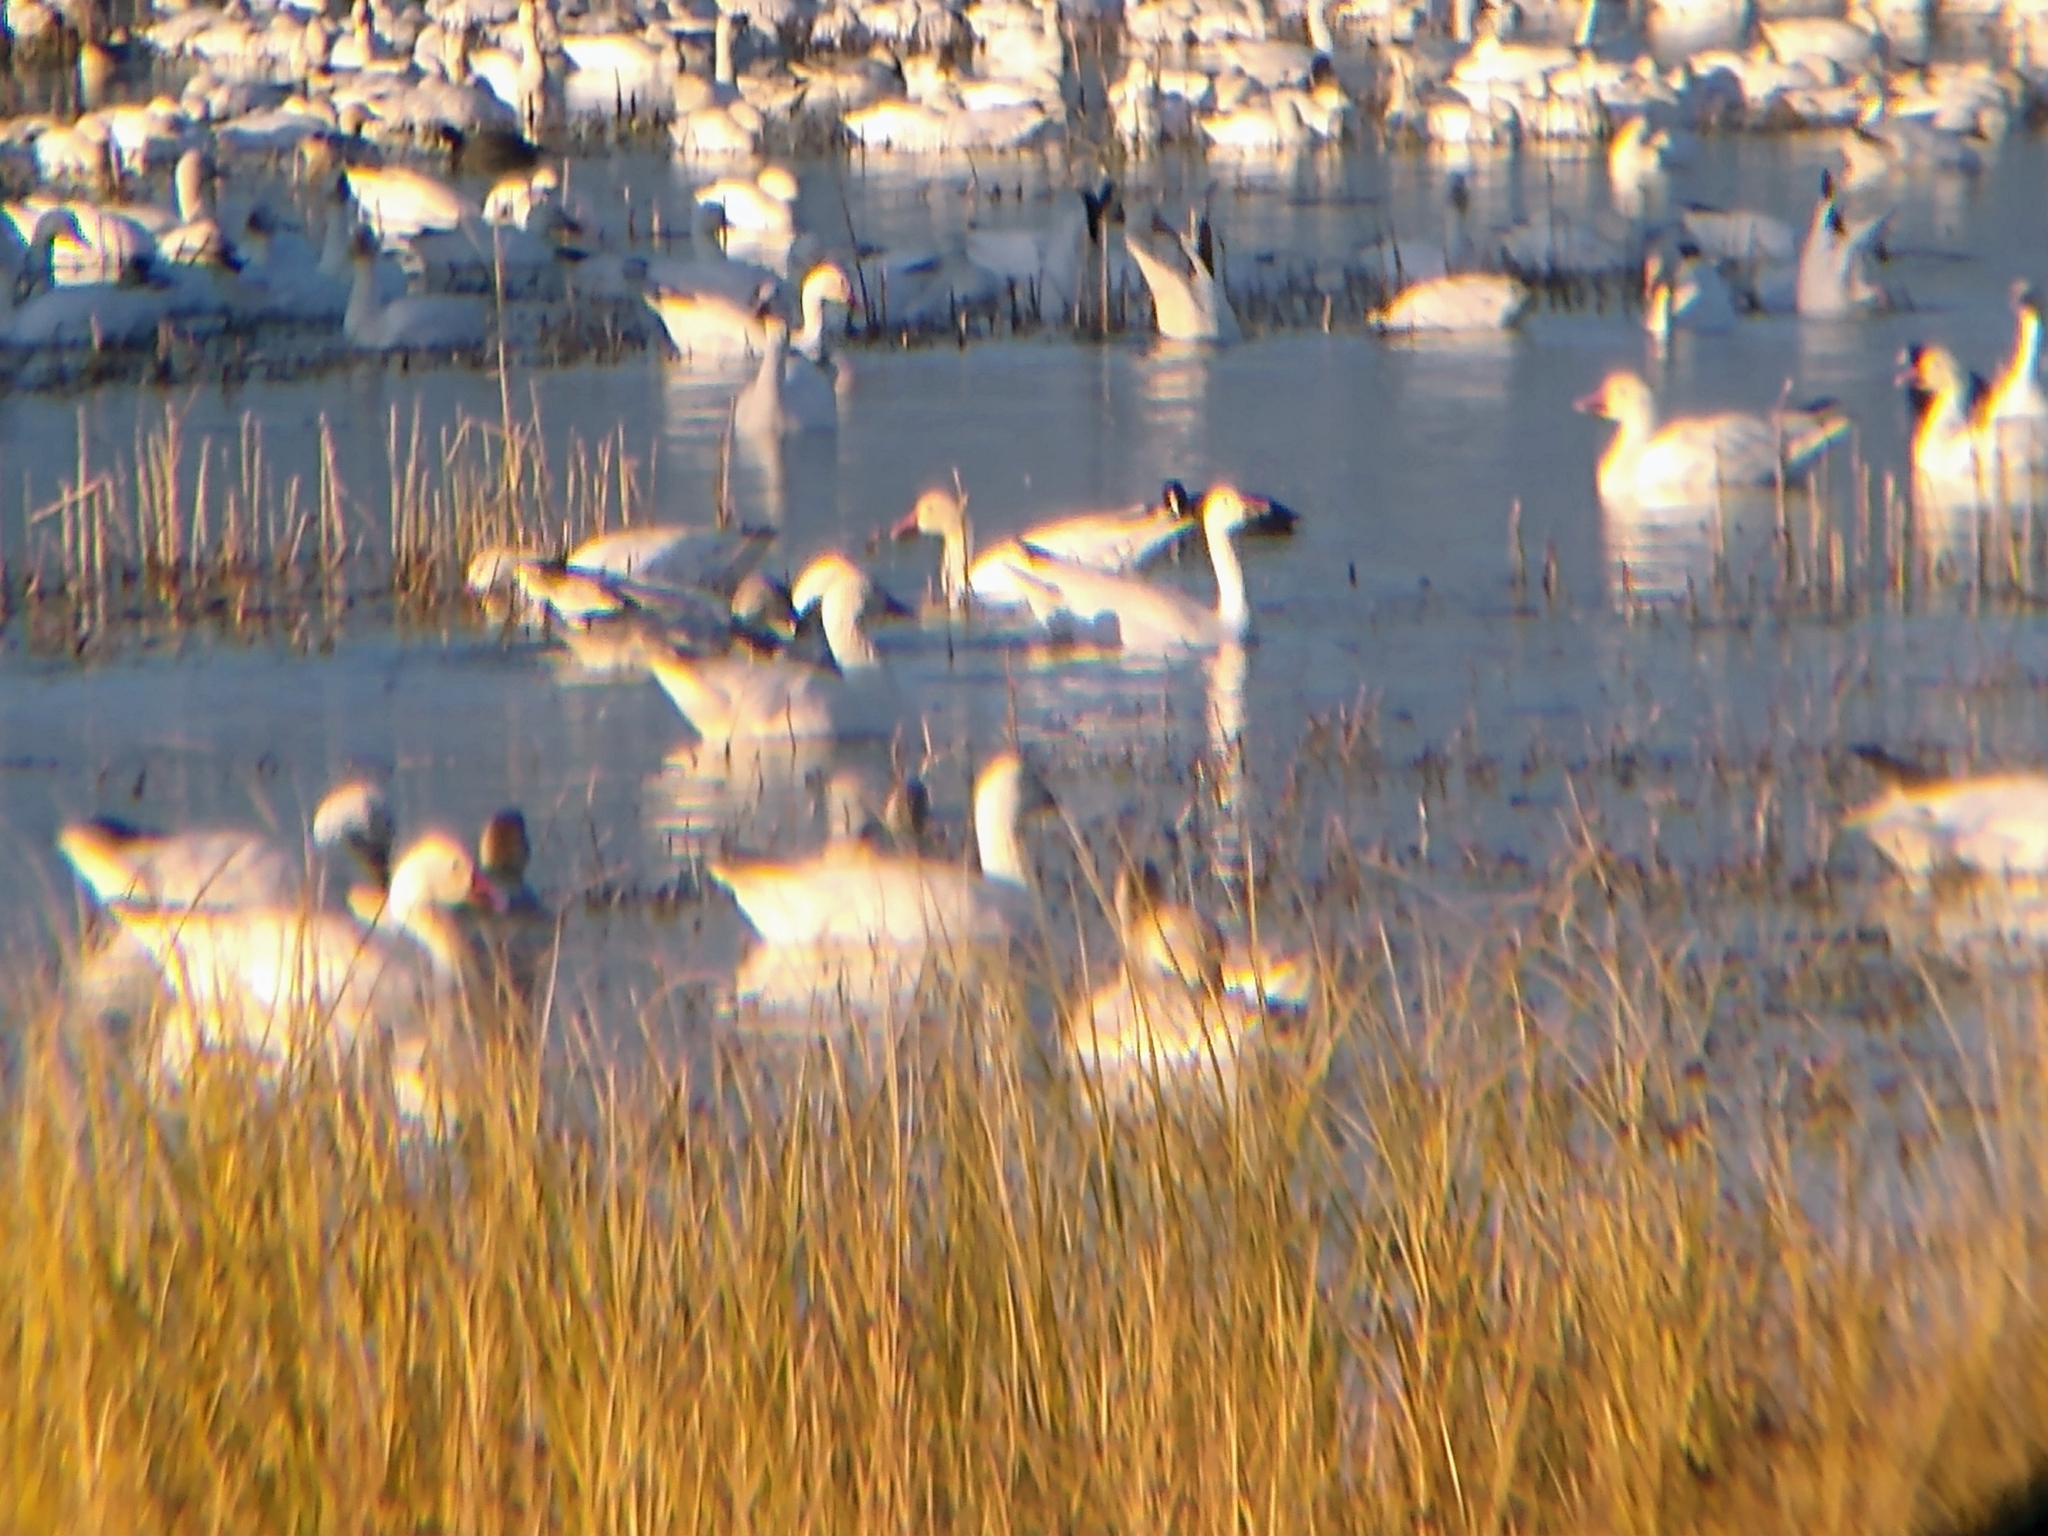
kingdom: Animalia
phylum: Chordata
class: Aves
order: Anseriformes
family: Anatidae
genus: Anser
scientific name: Anser caerulescens
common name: Snow goose
